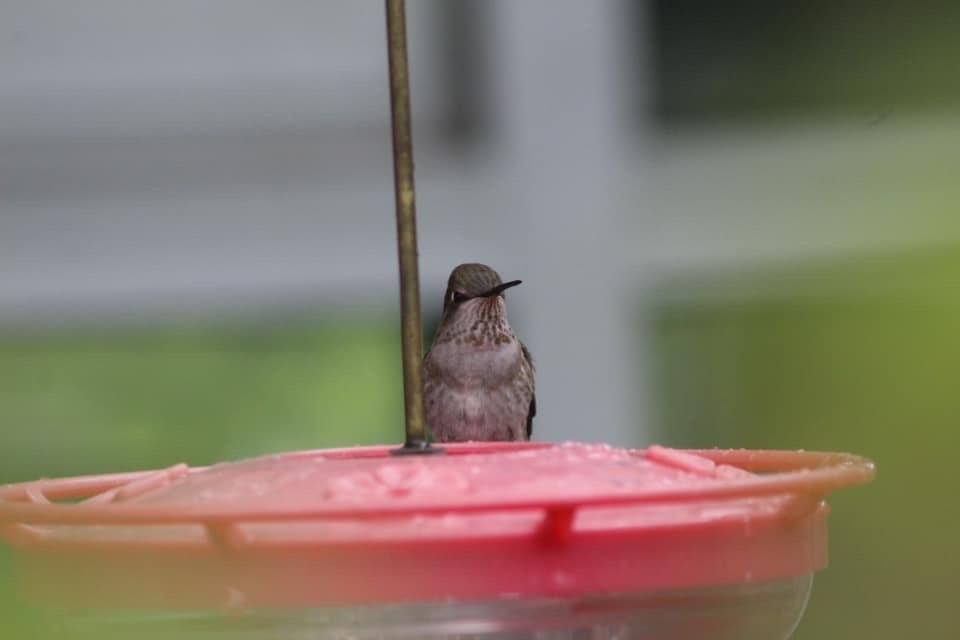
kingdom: Animalia
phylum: Chordata
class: Aves
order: Apodiformes
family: Trochilidae
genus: Calypte
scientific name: Calypte anna
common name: Anna's hummingbird
